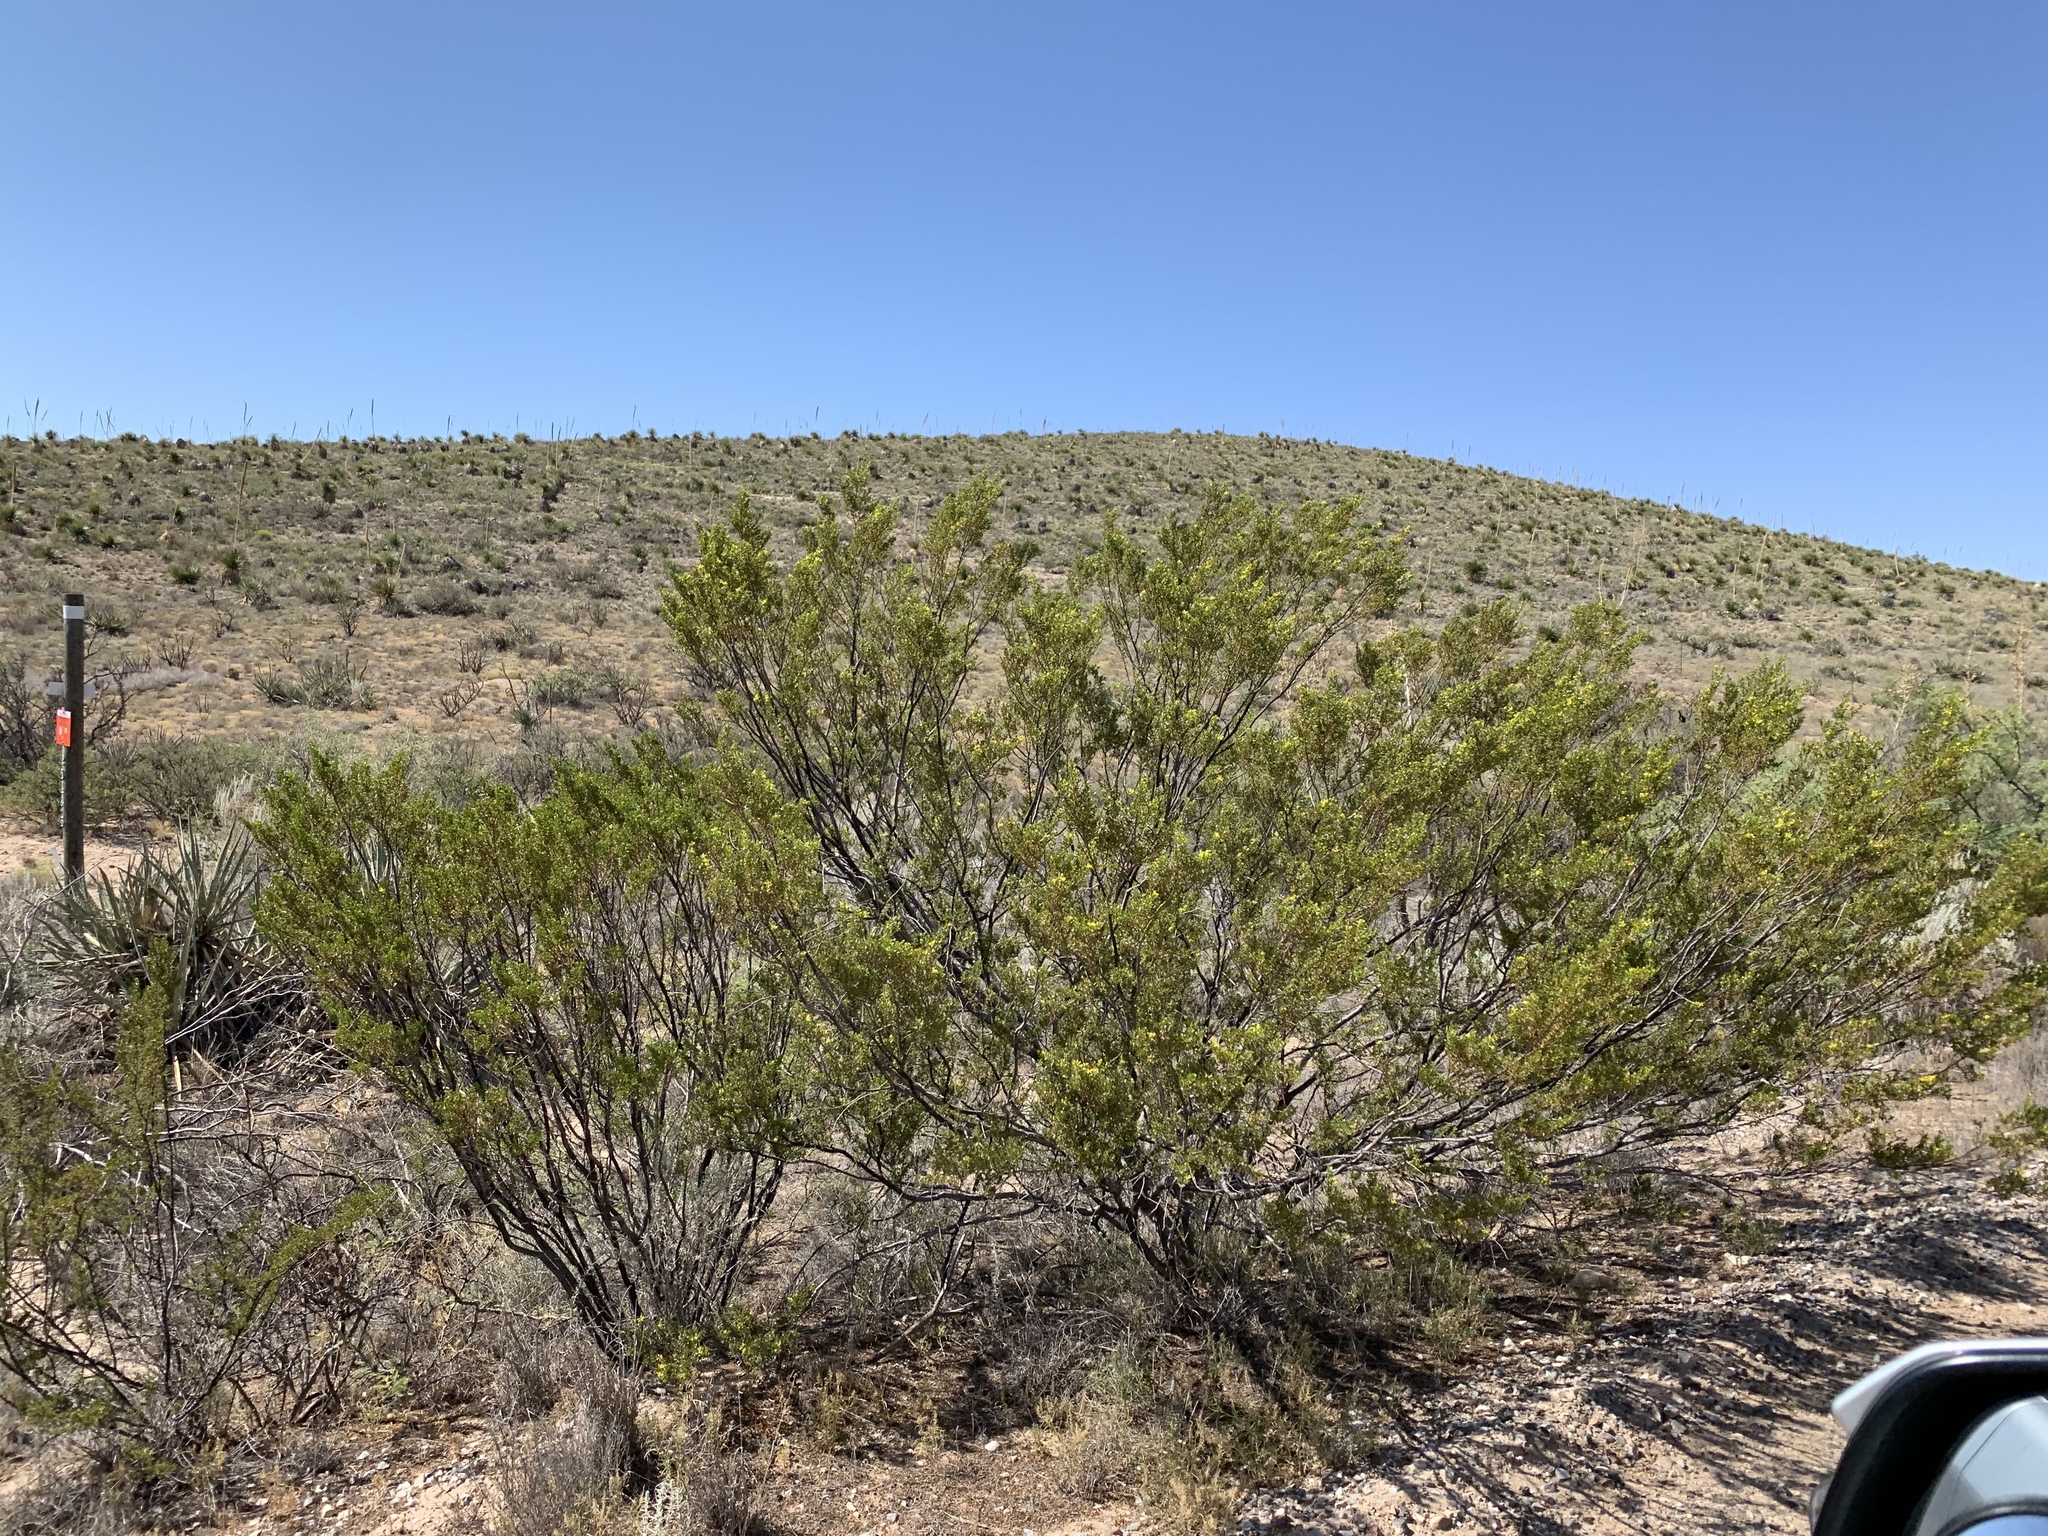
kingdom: Plantae
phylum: Tracheophyta
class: Magnoliopsida
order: Zygophyllales
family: Zygophyllaceae
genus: Larrea
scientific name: Larrea tridentata
